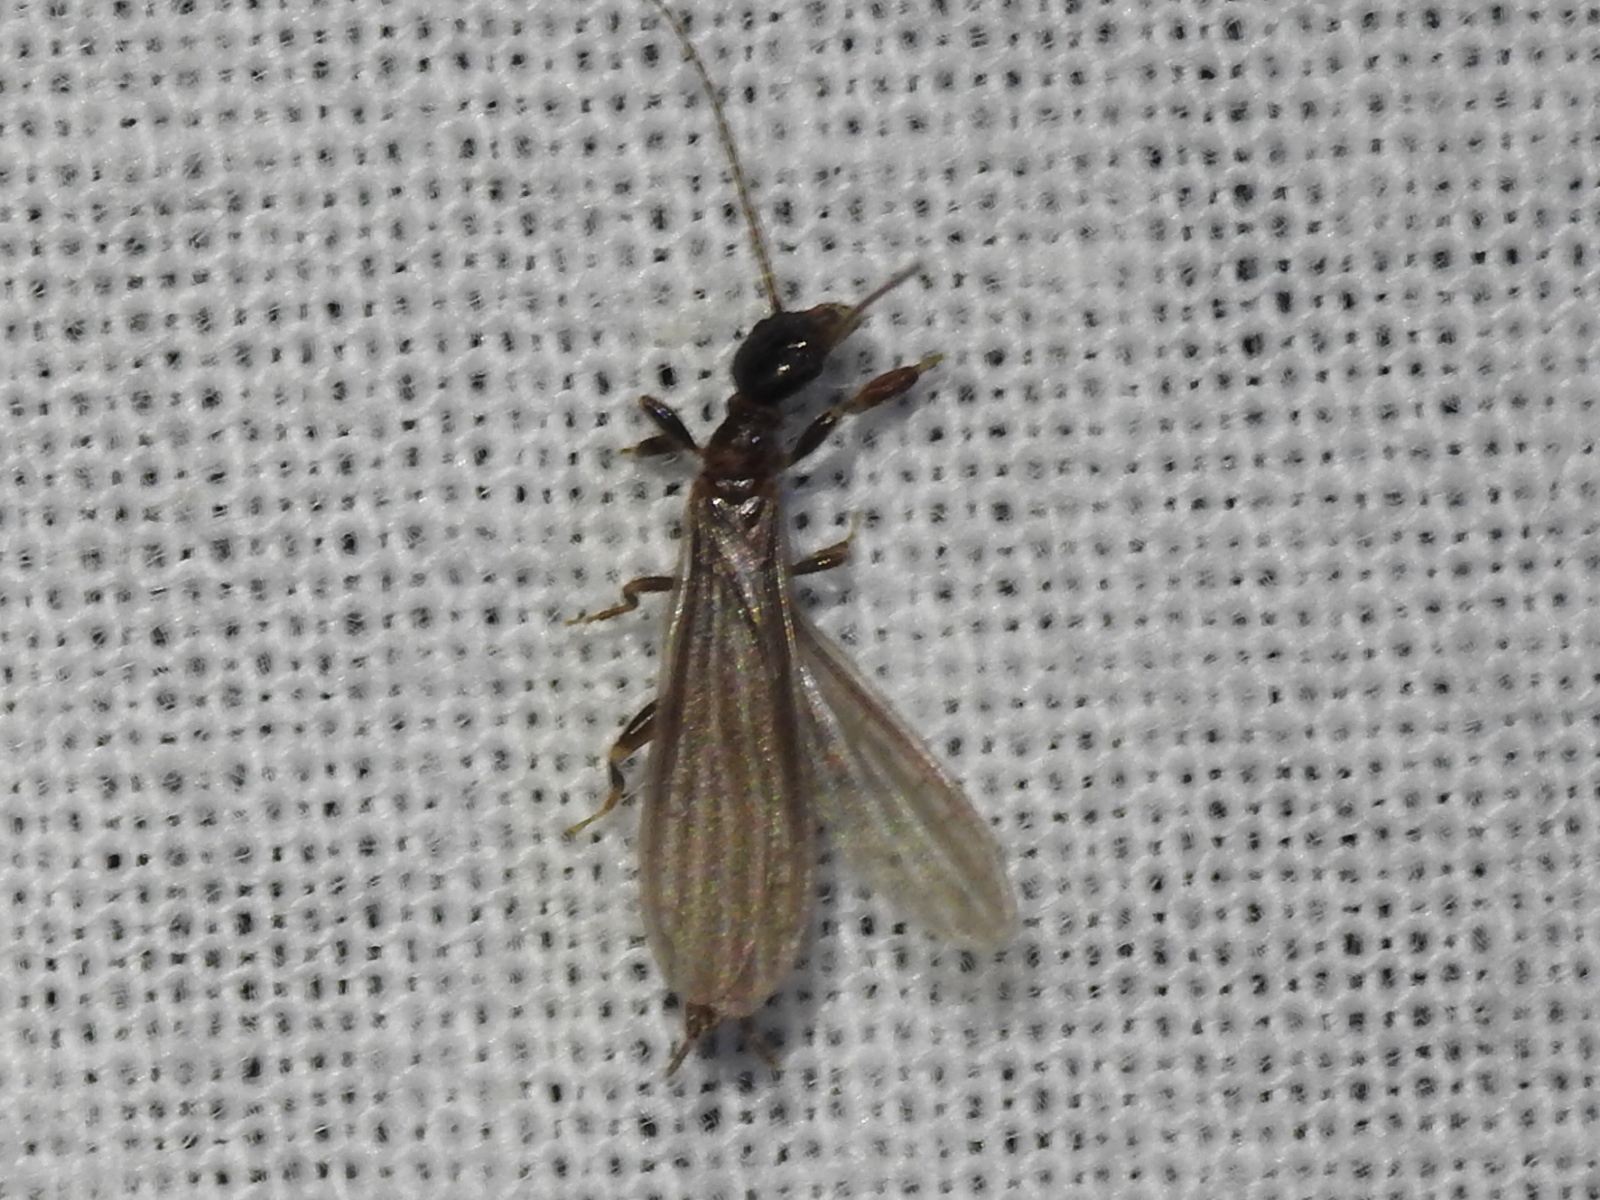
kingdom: Animalia
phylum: Arthropoda
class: Insecta
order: Embioptera
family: Oligotomidae
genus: Oligotoma
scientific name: Oligotoma nigra
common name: Black webspinner
